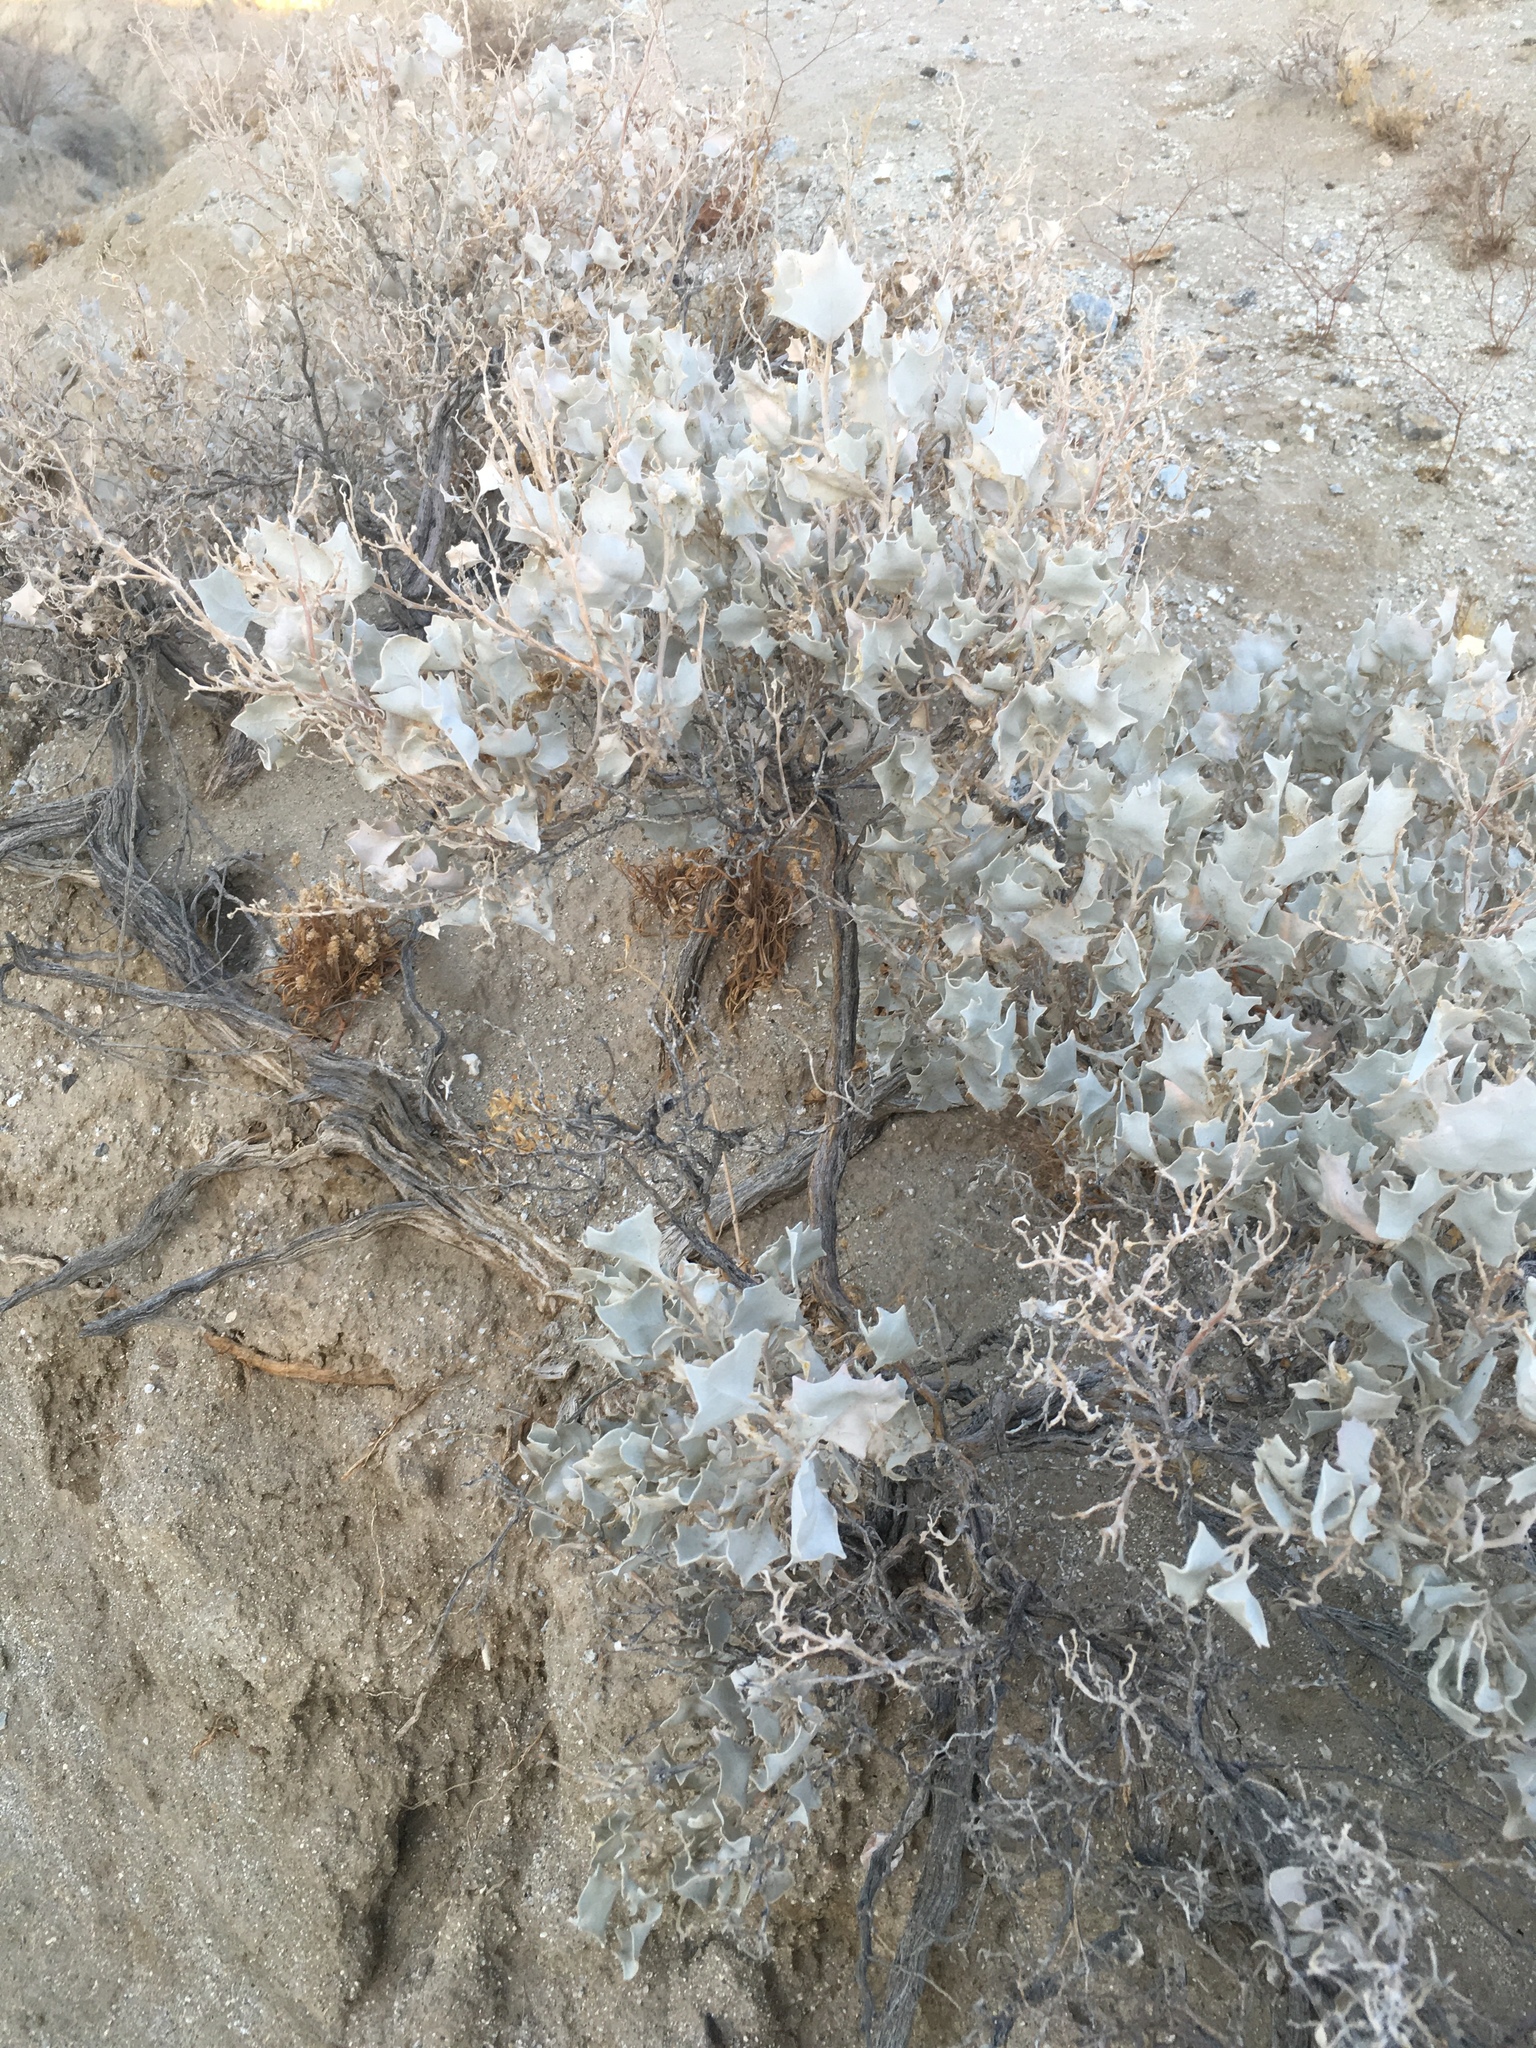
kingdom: Plantae
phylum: Tracheophyta
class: Magnoliopsida
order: Caryophyllales
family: Amaranthaceae
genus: Atriplex
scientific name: Atriplex hymenelytra
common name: Desert-holly
